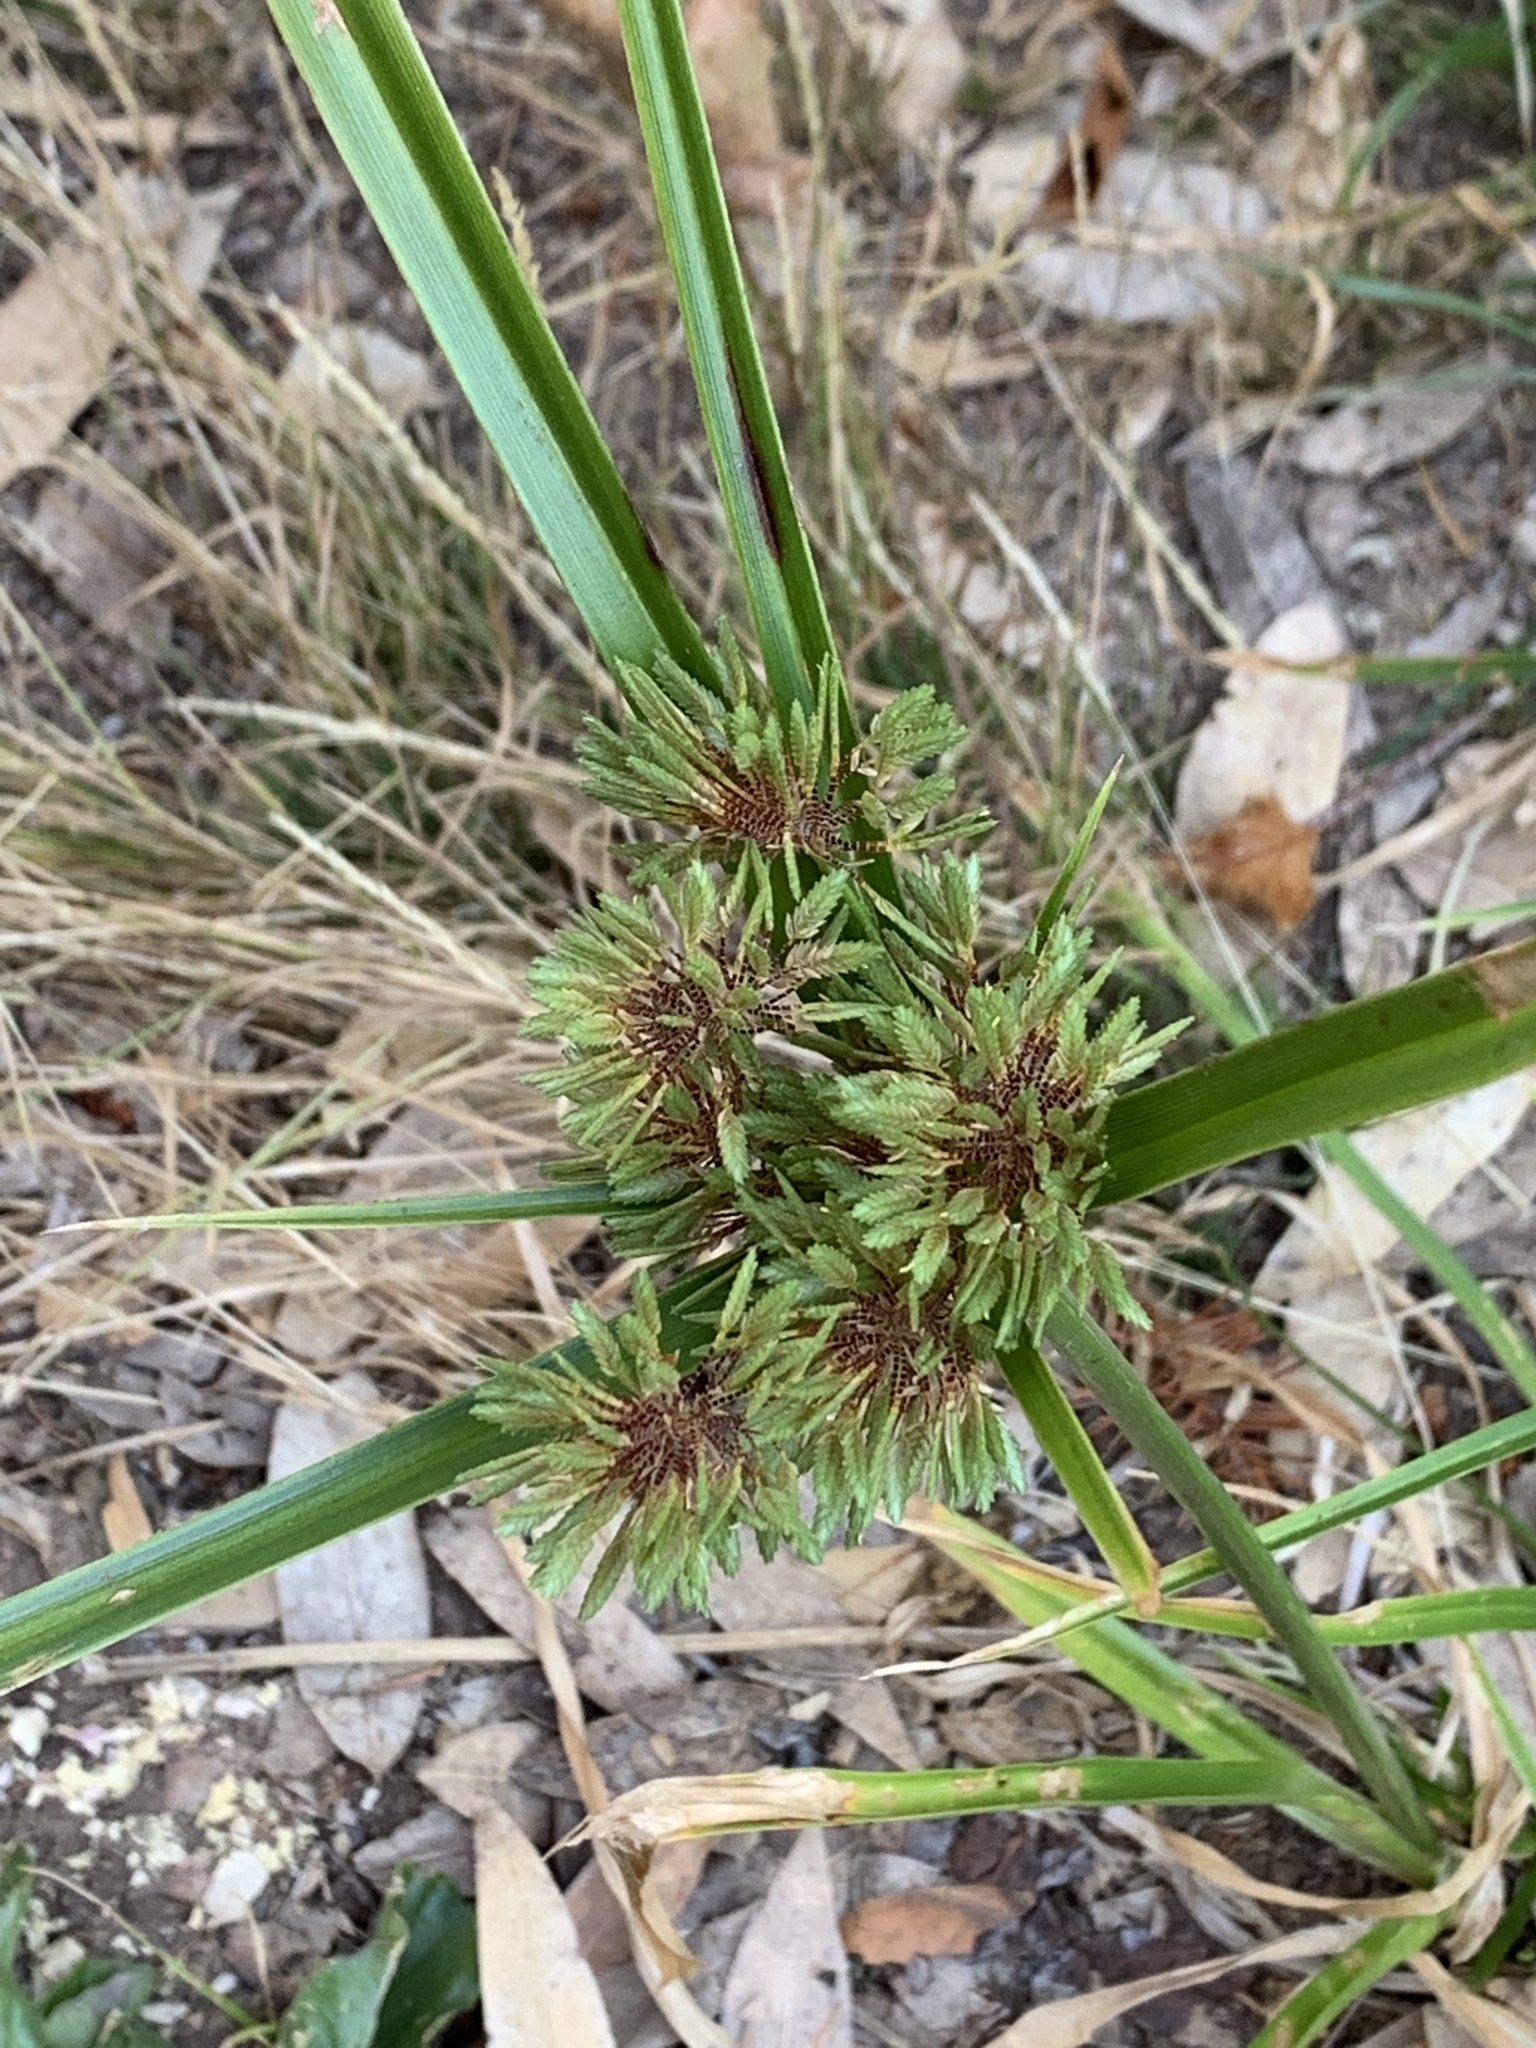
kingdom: Plantae
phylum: Tracheophyta
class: Liliopsida
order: Poales
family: Cyperaceae
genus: Cyperus
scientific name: Cyperus eragrostis
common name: Tall flatsedge
